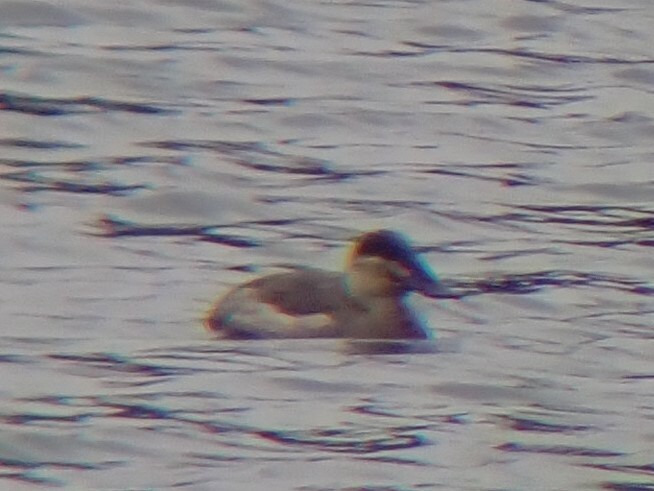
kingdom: Animalia
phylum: Chordata
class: Aves
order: Anseriformes
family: Anatidae
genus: Oxyura
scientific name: Oxyura jamaicensis
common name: Ruddy duck
